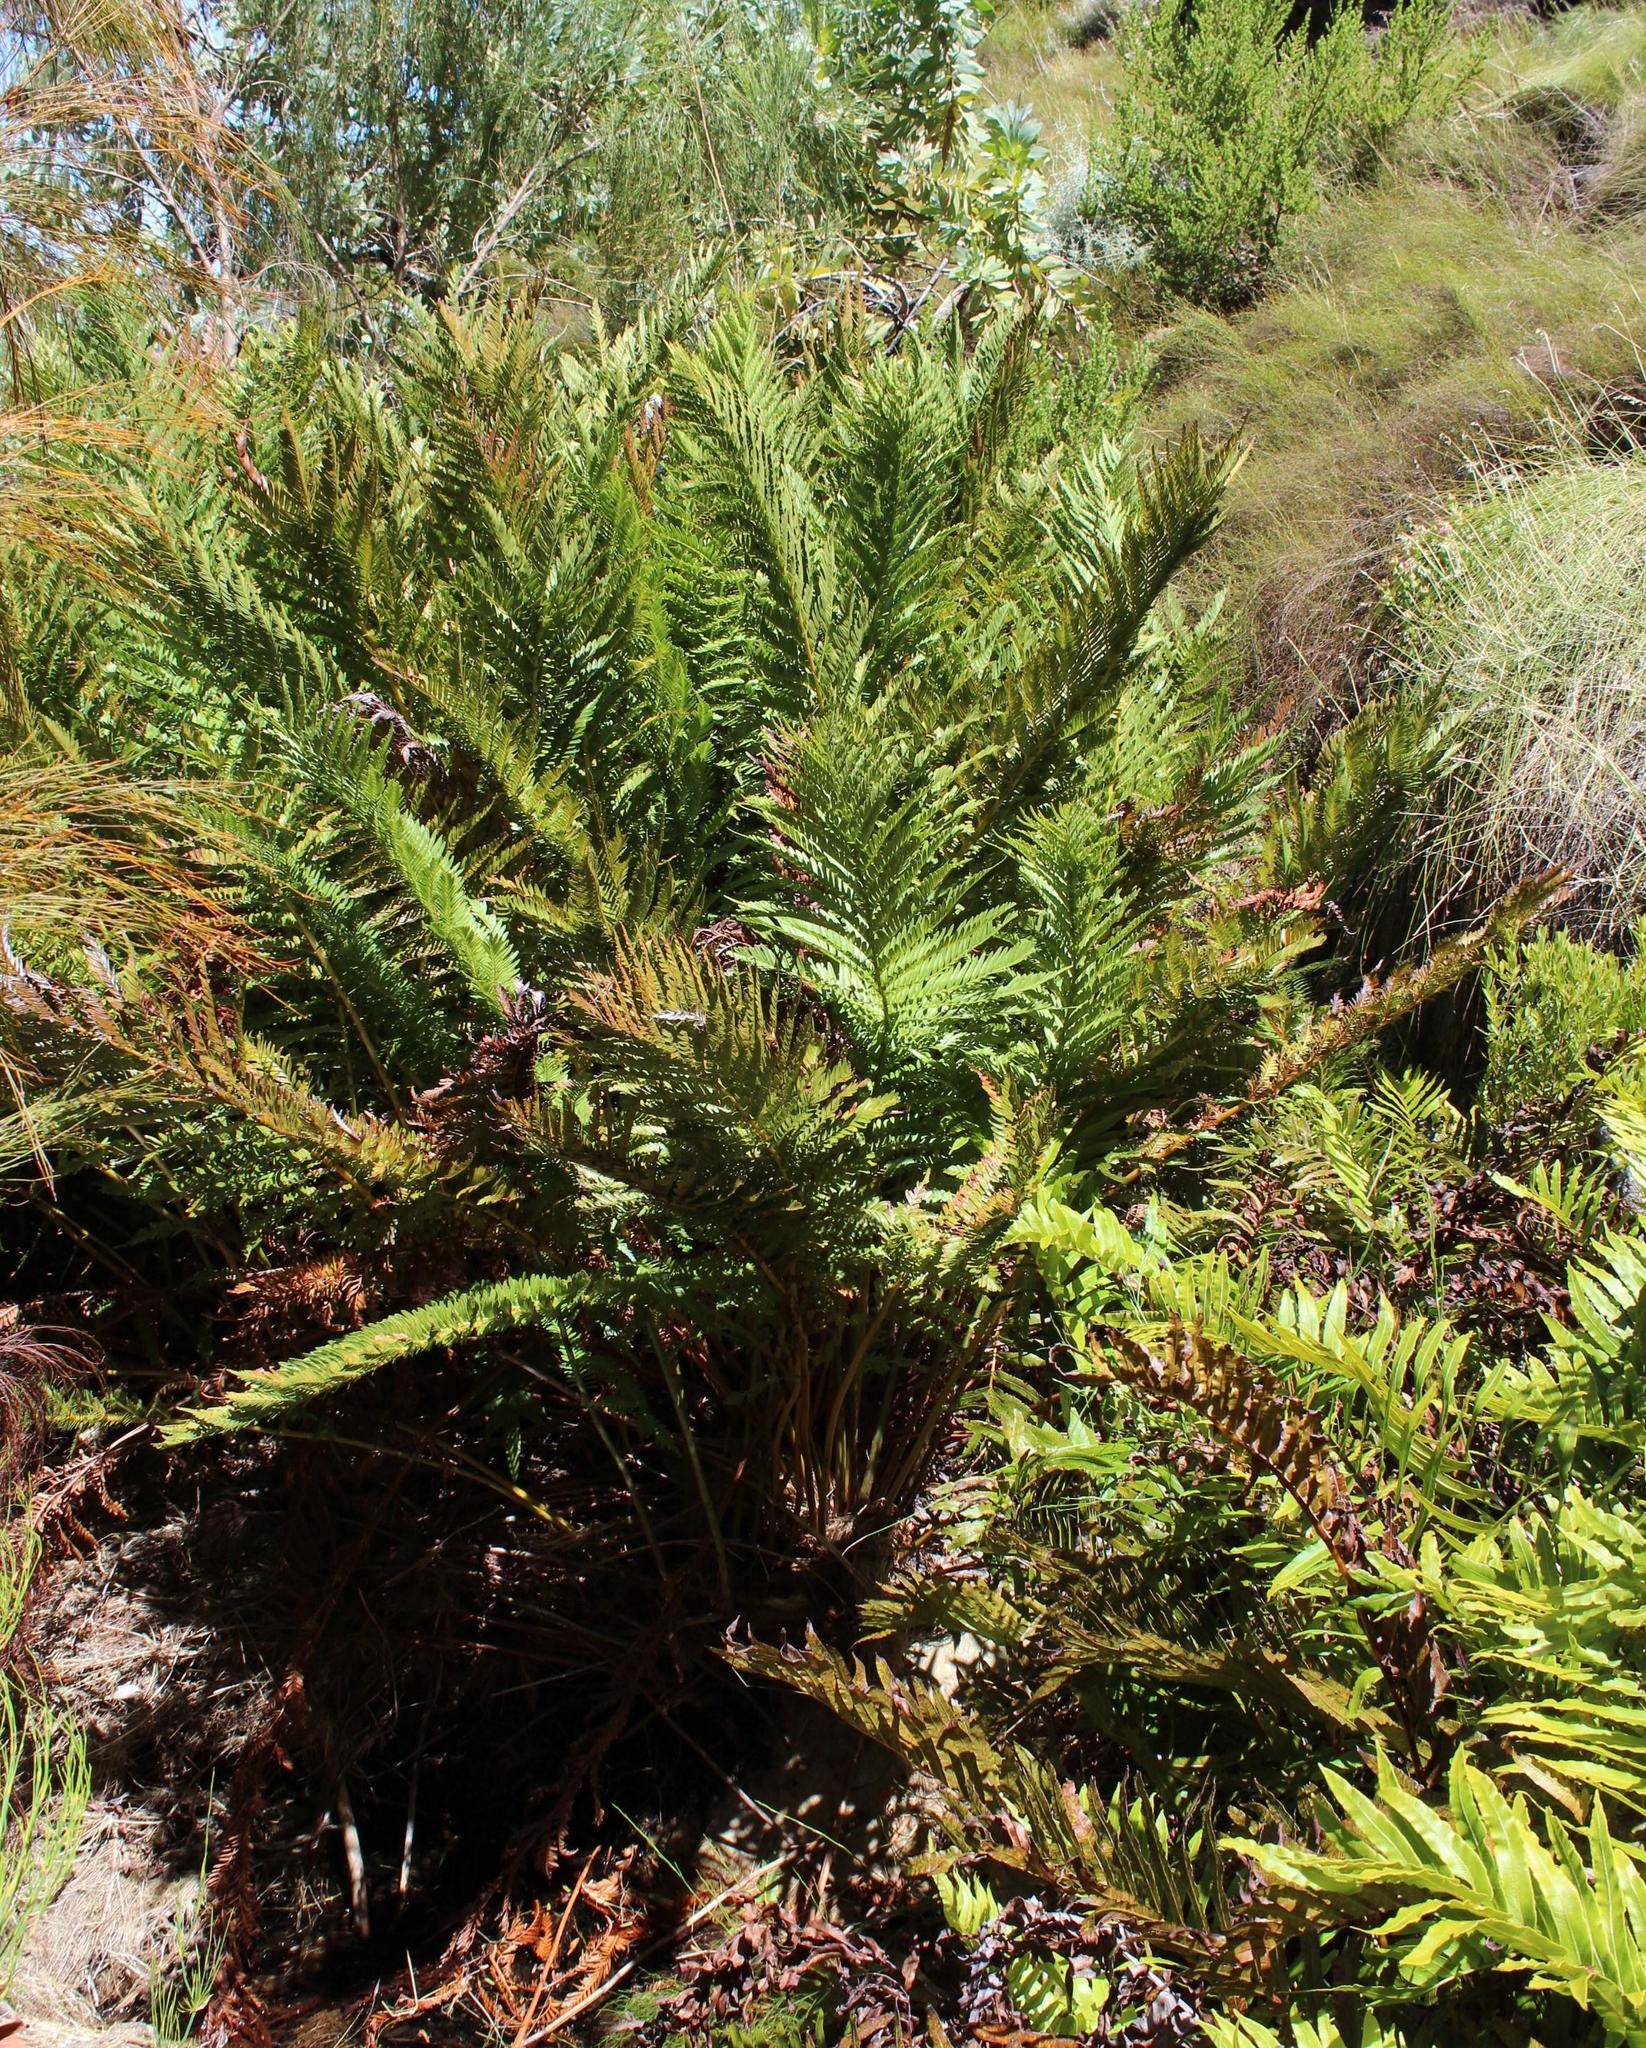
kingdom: Plantae
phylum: Tracheophyta
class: Polypodiopsida
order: Osmundales
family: Osmundaceae
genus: Todea
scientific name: Todea barbara
